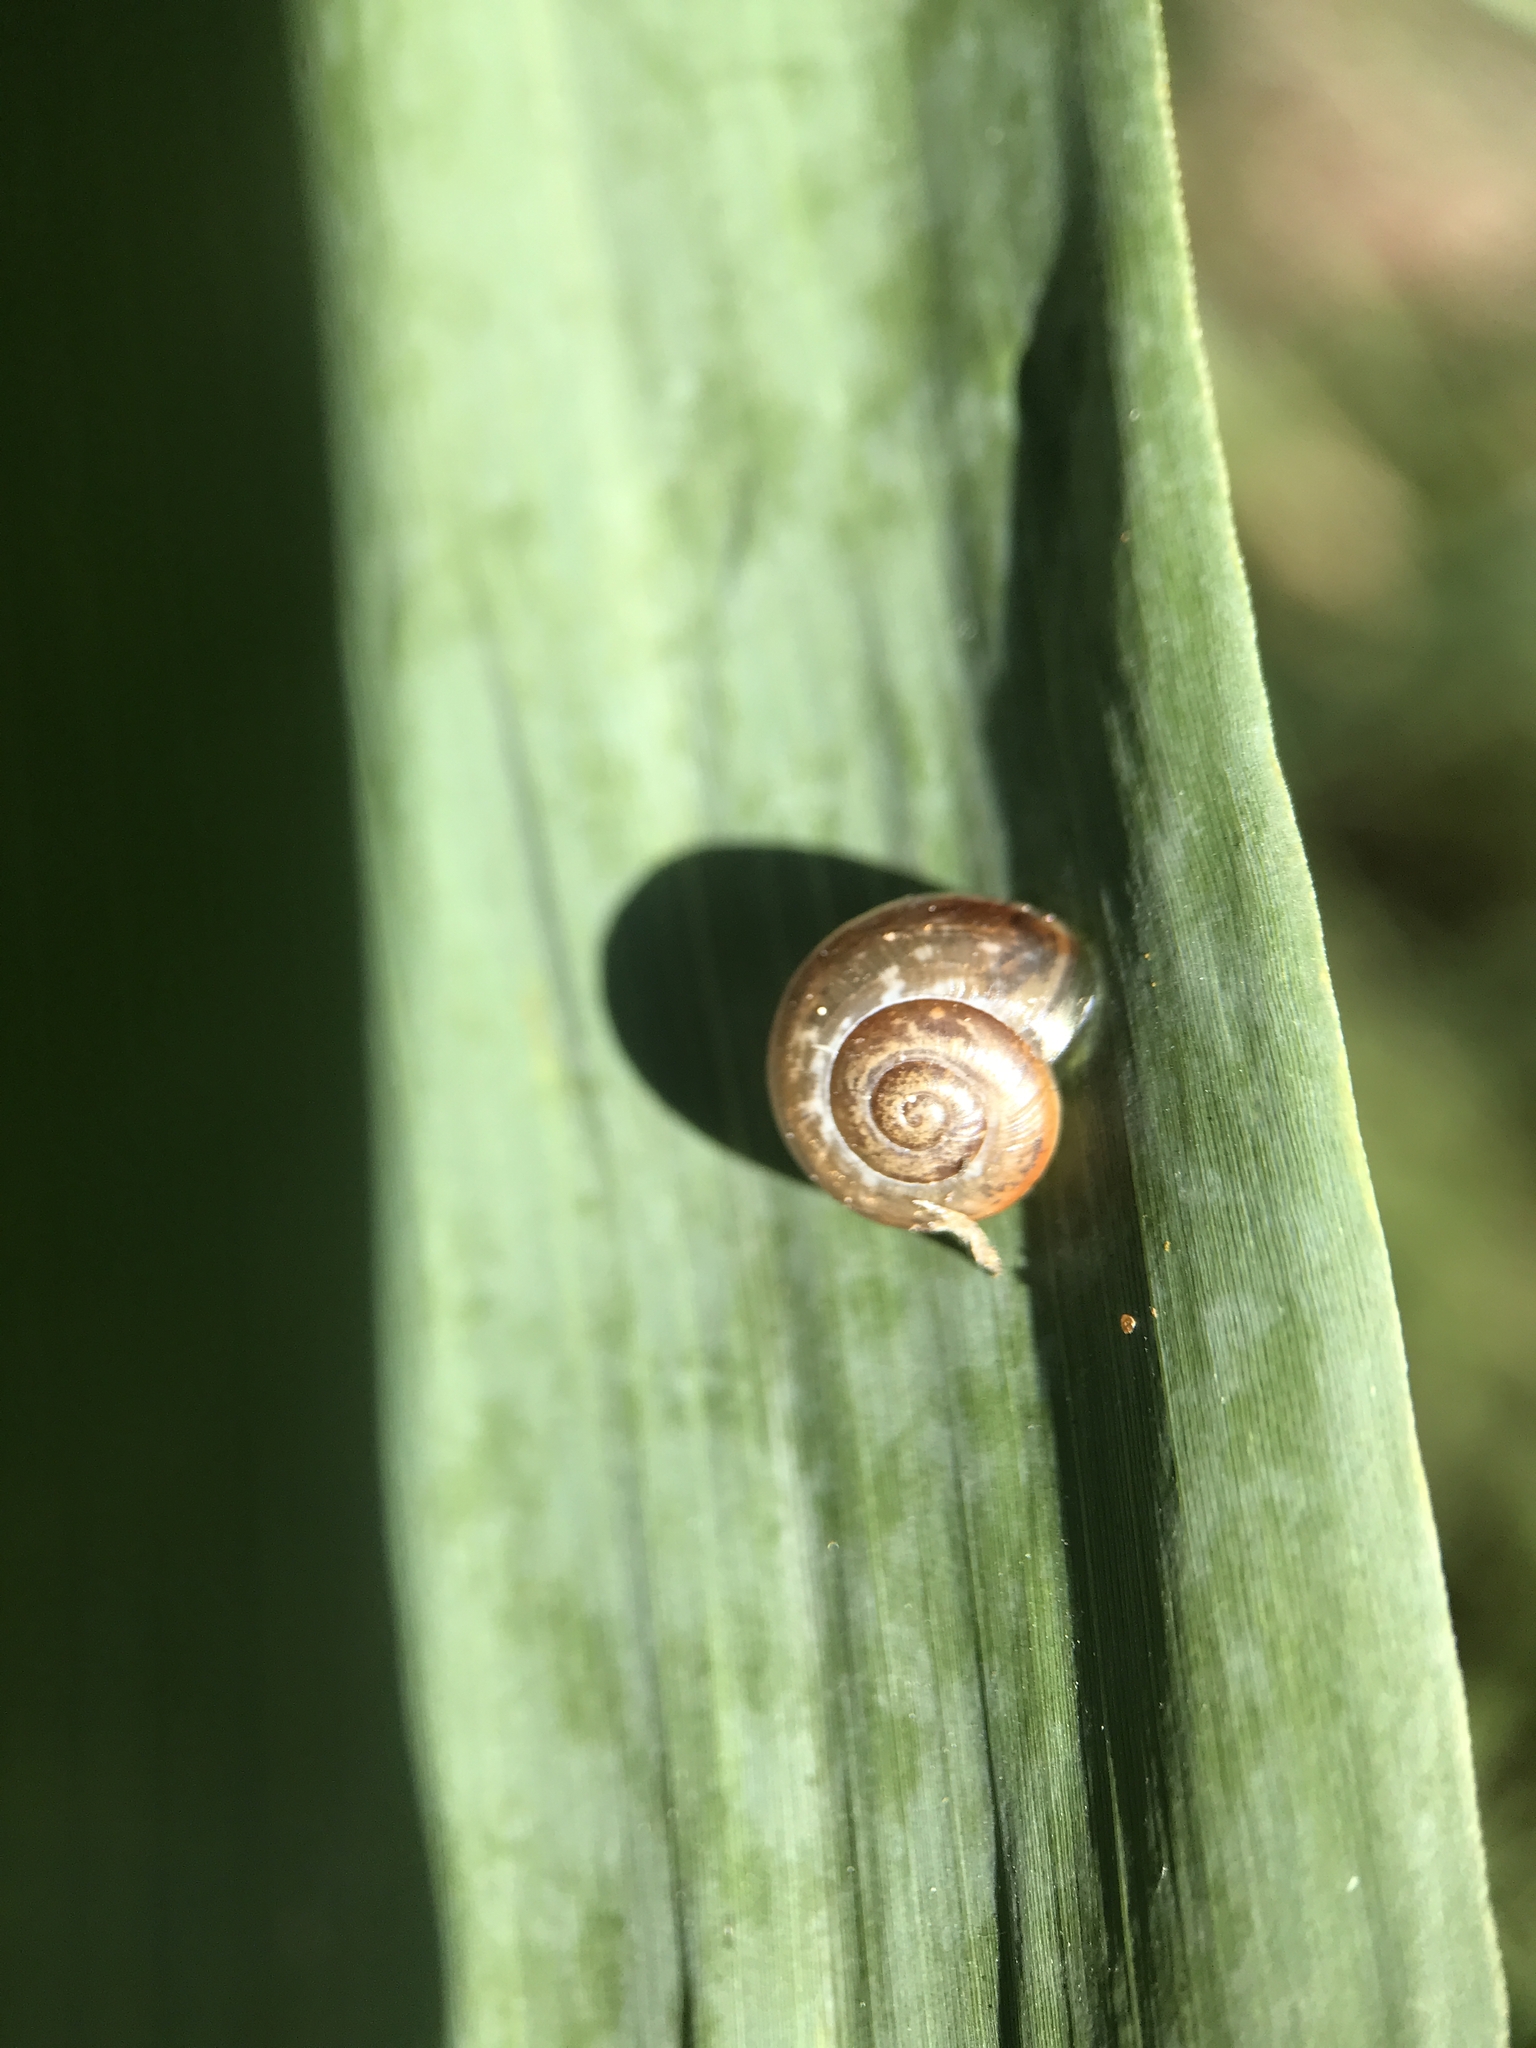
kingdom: Animalia
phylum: Mollusca
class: Gastropoda
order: Stylommatophora
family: Helicidae
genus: Arianta
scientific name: Arianta arbustorum
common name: Copse snail
